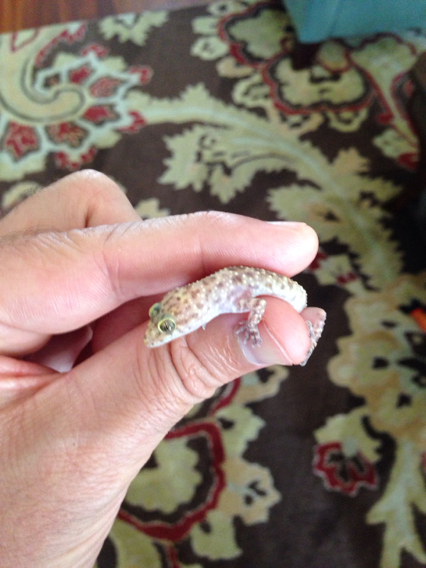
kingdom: Animalia
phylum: Chordata
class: Squamata
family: Gekkonidae
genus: Hemidactylus
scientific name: Hemidactylus turcicus
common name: Turkish gecko
